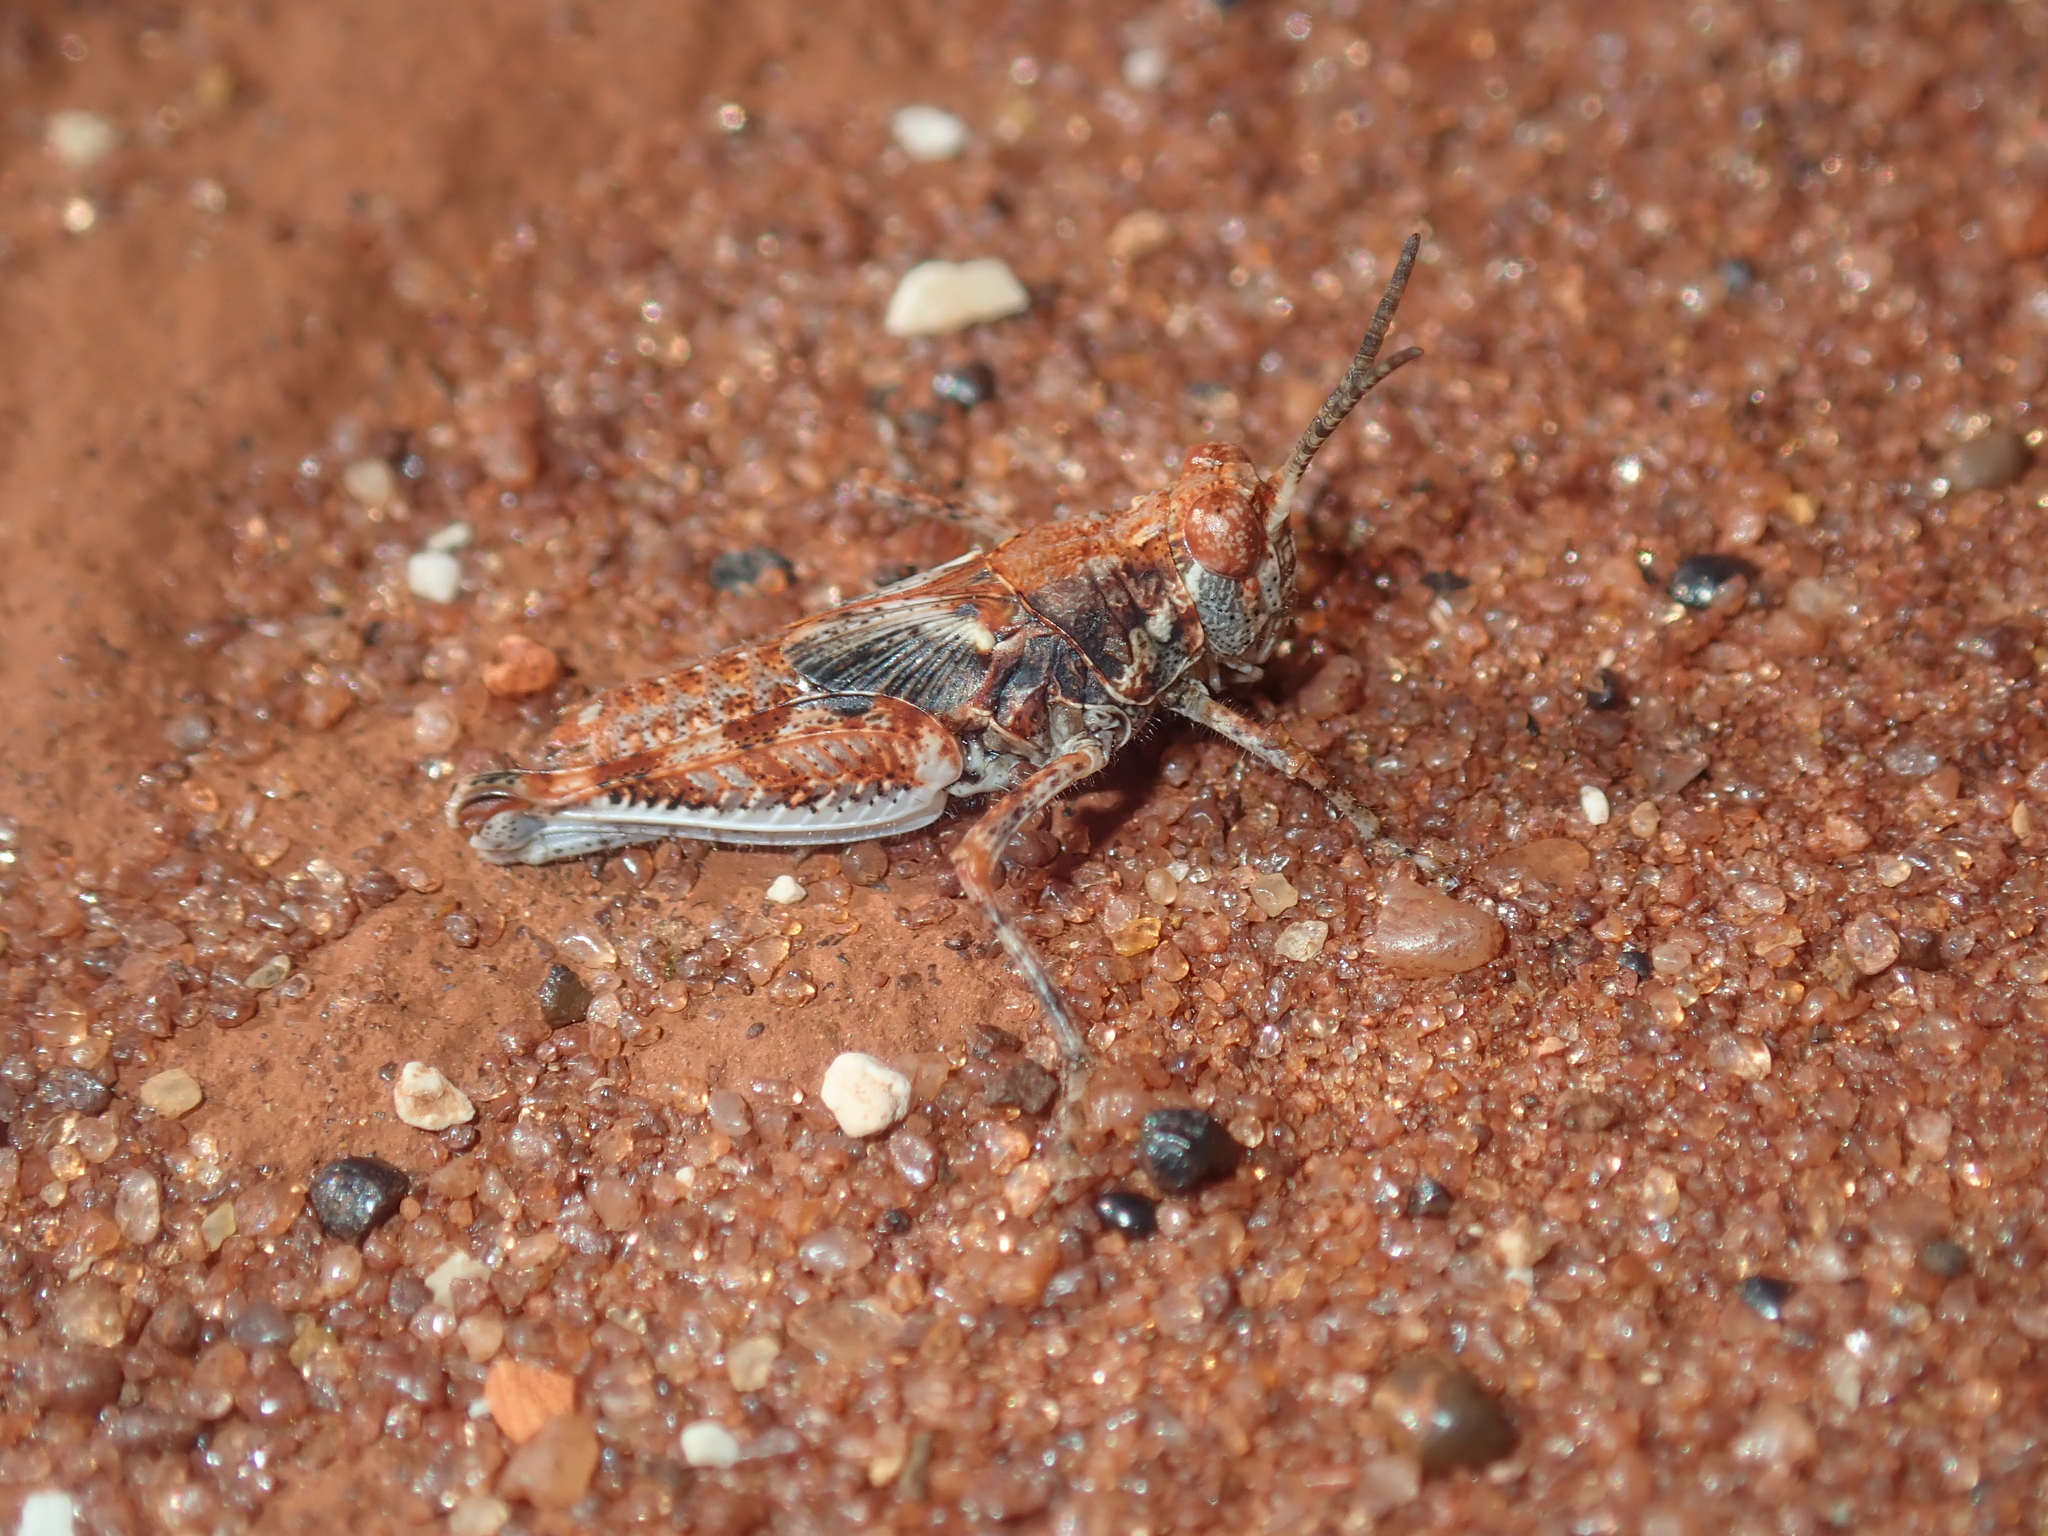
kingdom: Animalia
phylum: Arthropoda
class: Insecta
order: Orthoptera
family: Acrididae
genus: Urnisa
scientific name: Urnisa guttulosa
